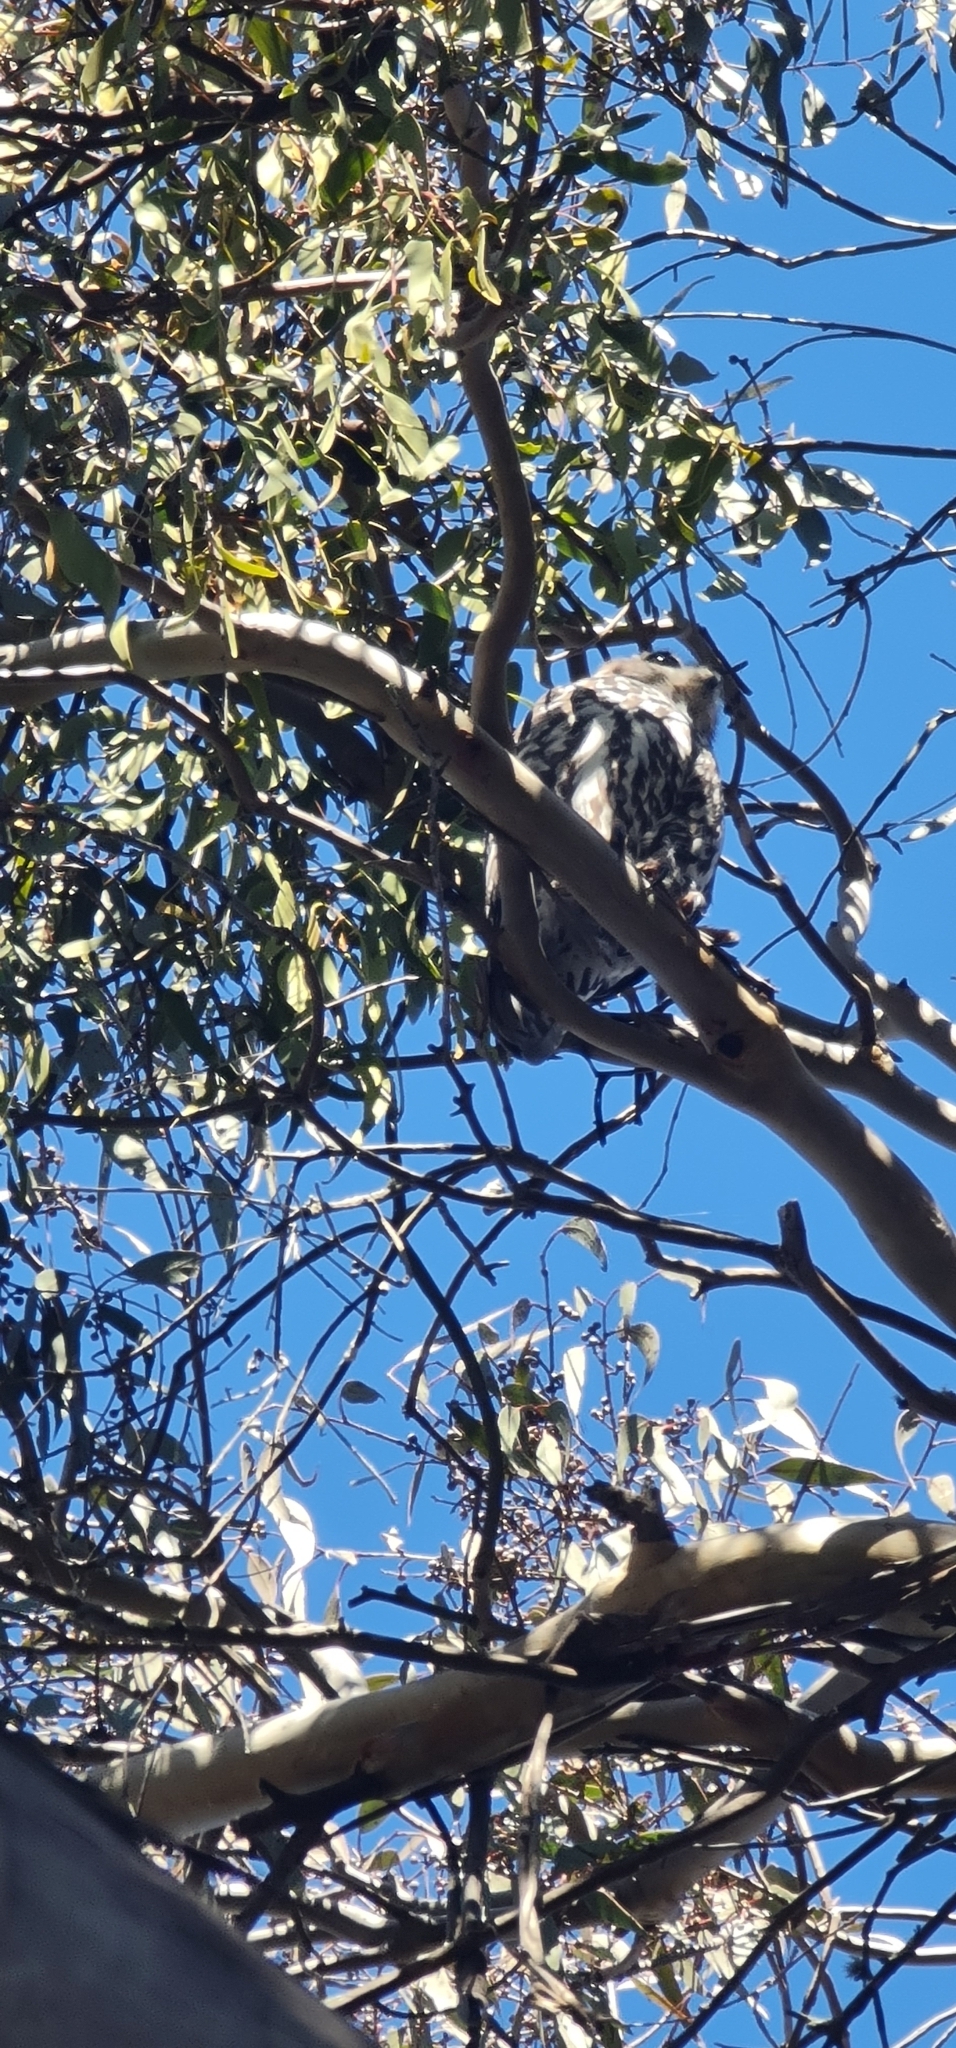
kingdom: Animalia
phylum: Chordata
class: Aves
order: Strigiformes
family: Strigidae
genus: Ninox
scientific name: Ninox connivens
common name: Barking owl
